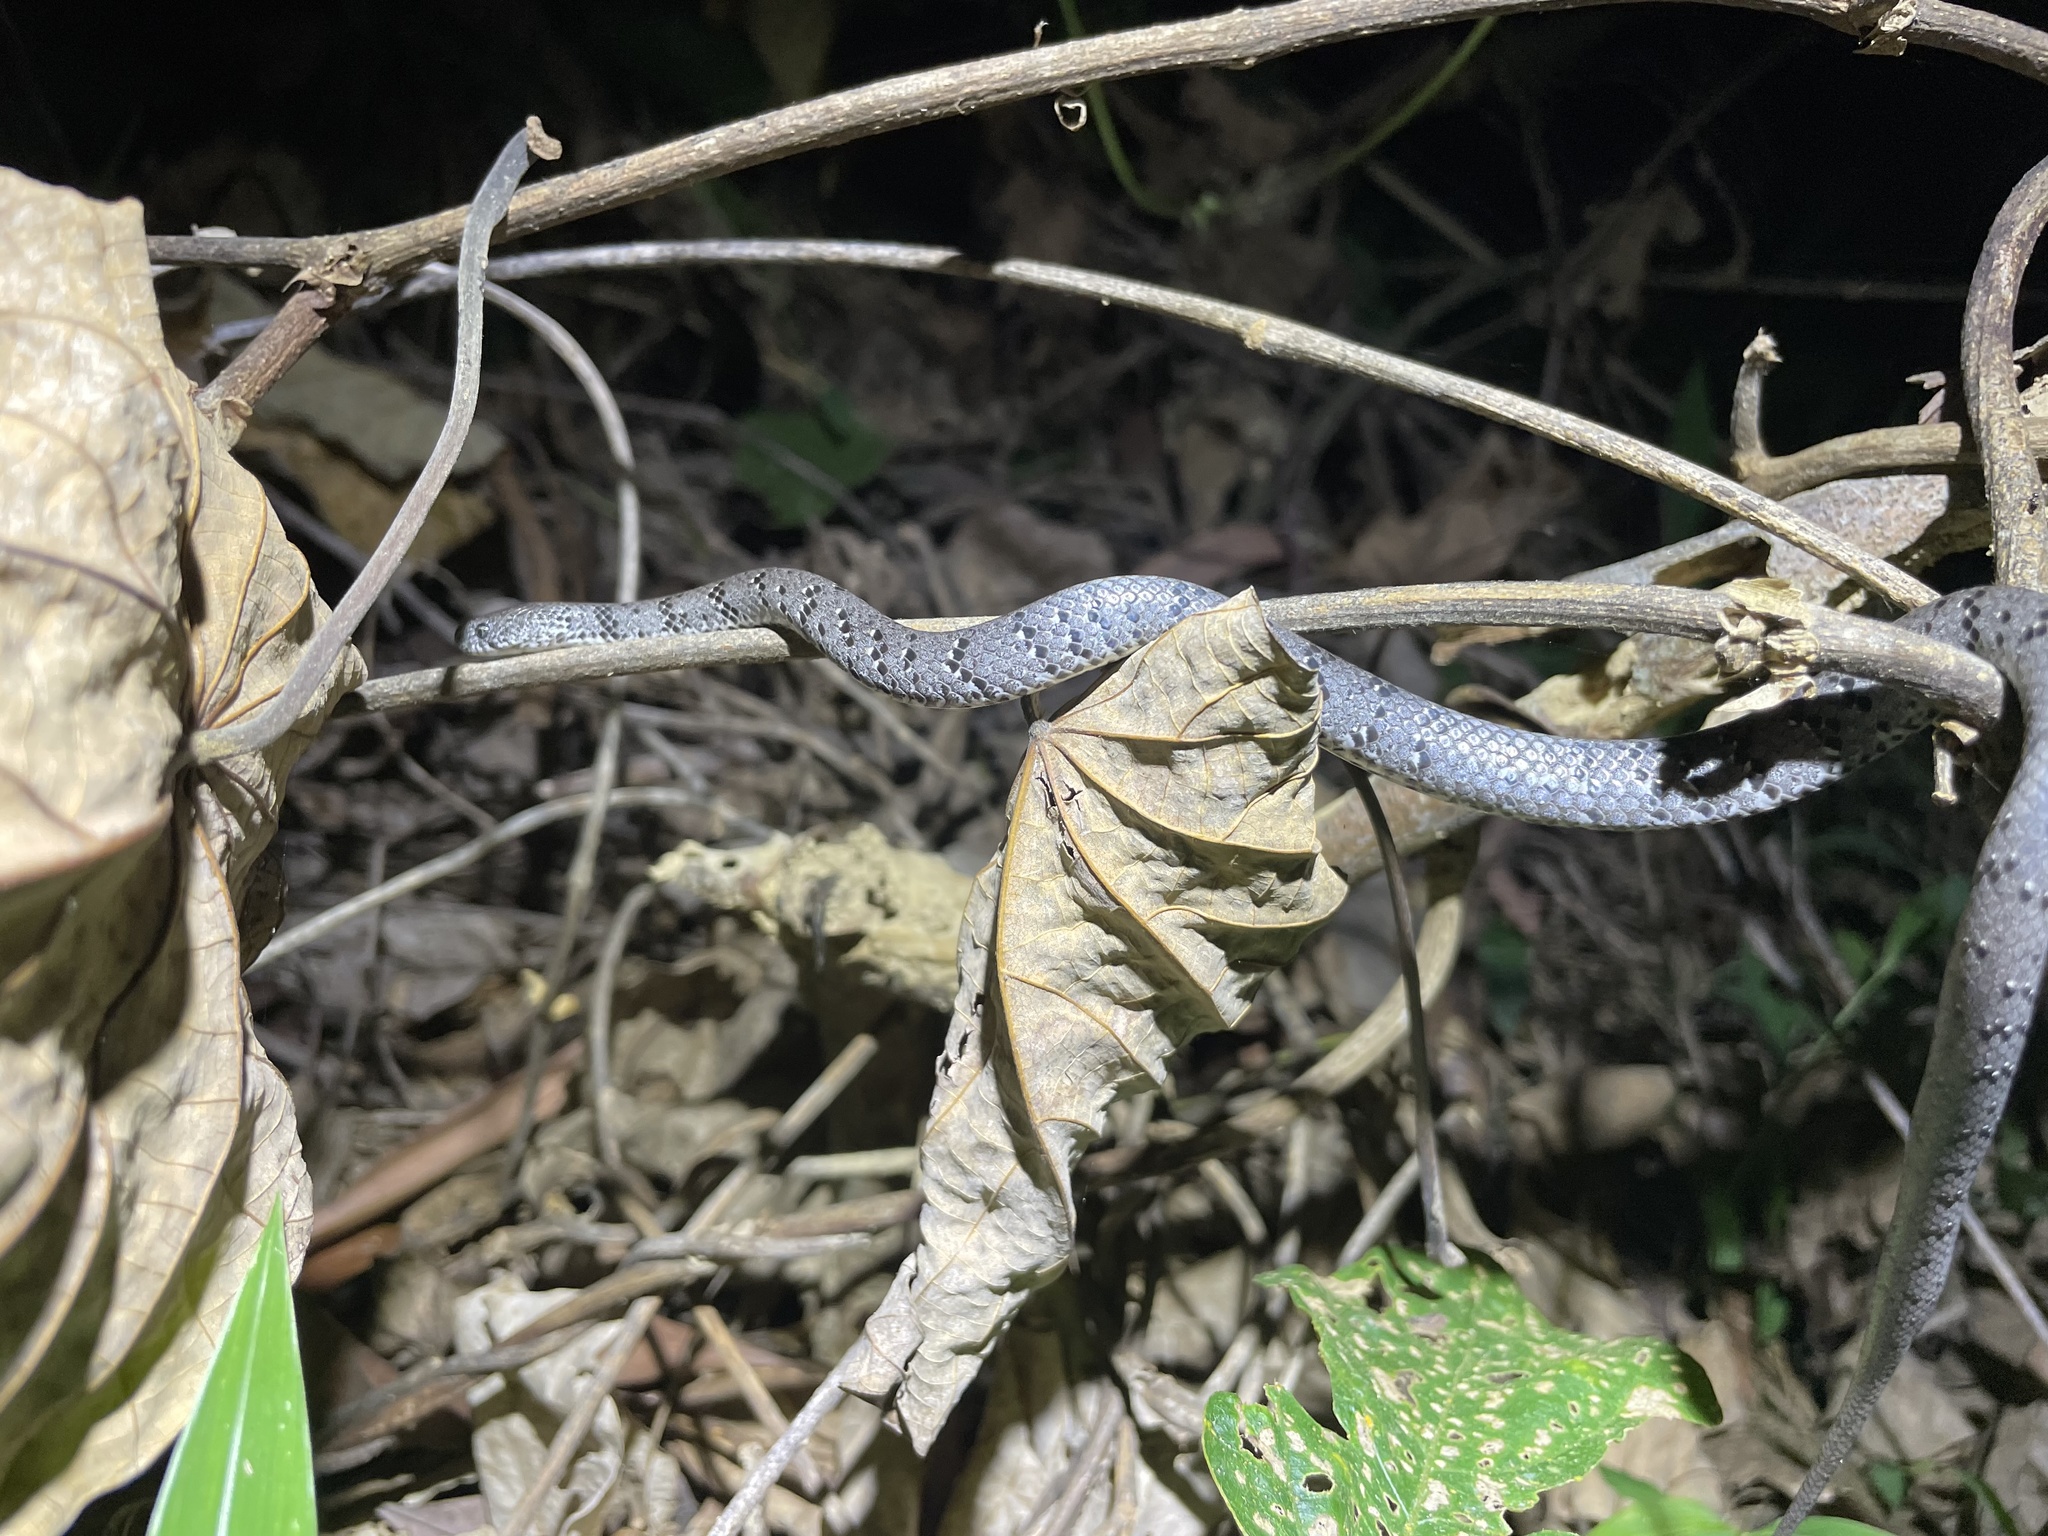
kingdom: Animalia
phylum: Chordata
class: Squamata
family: Pareidae
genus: Pareas
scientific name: Pareas margaritophorus
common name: Mountain slug snake
